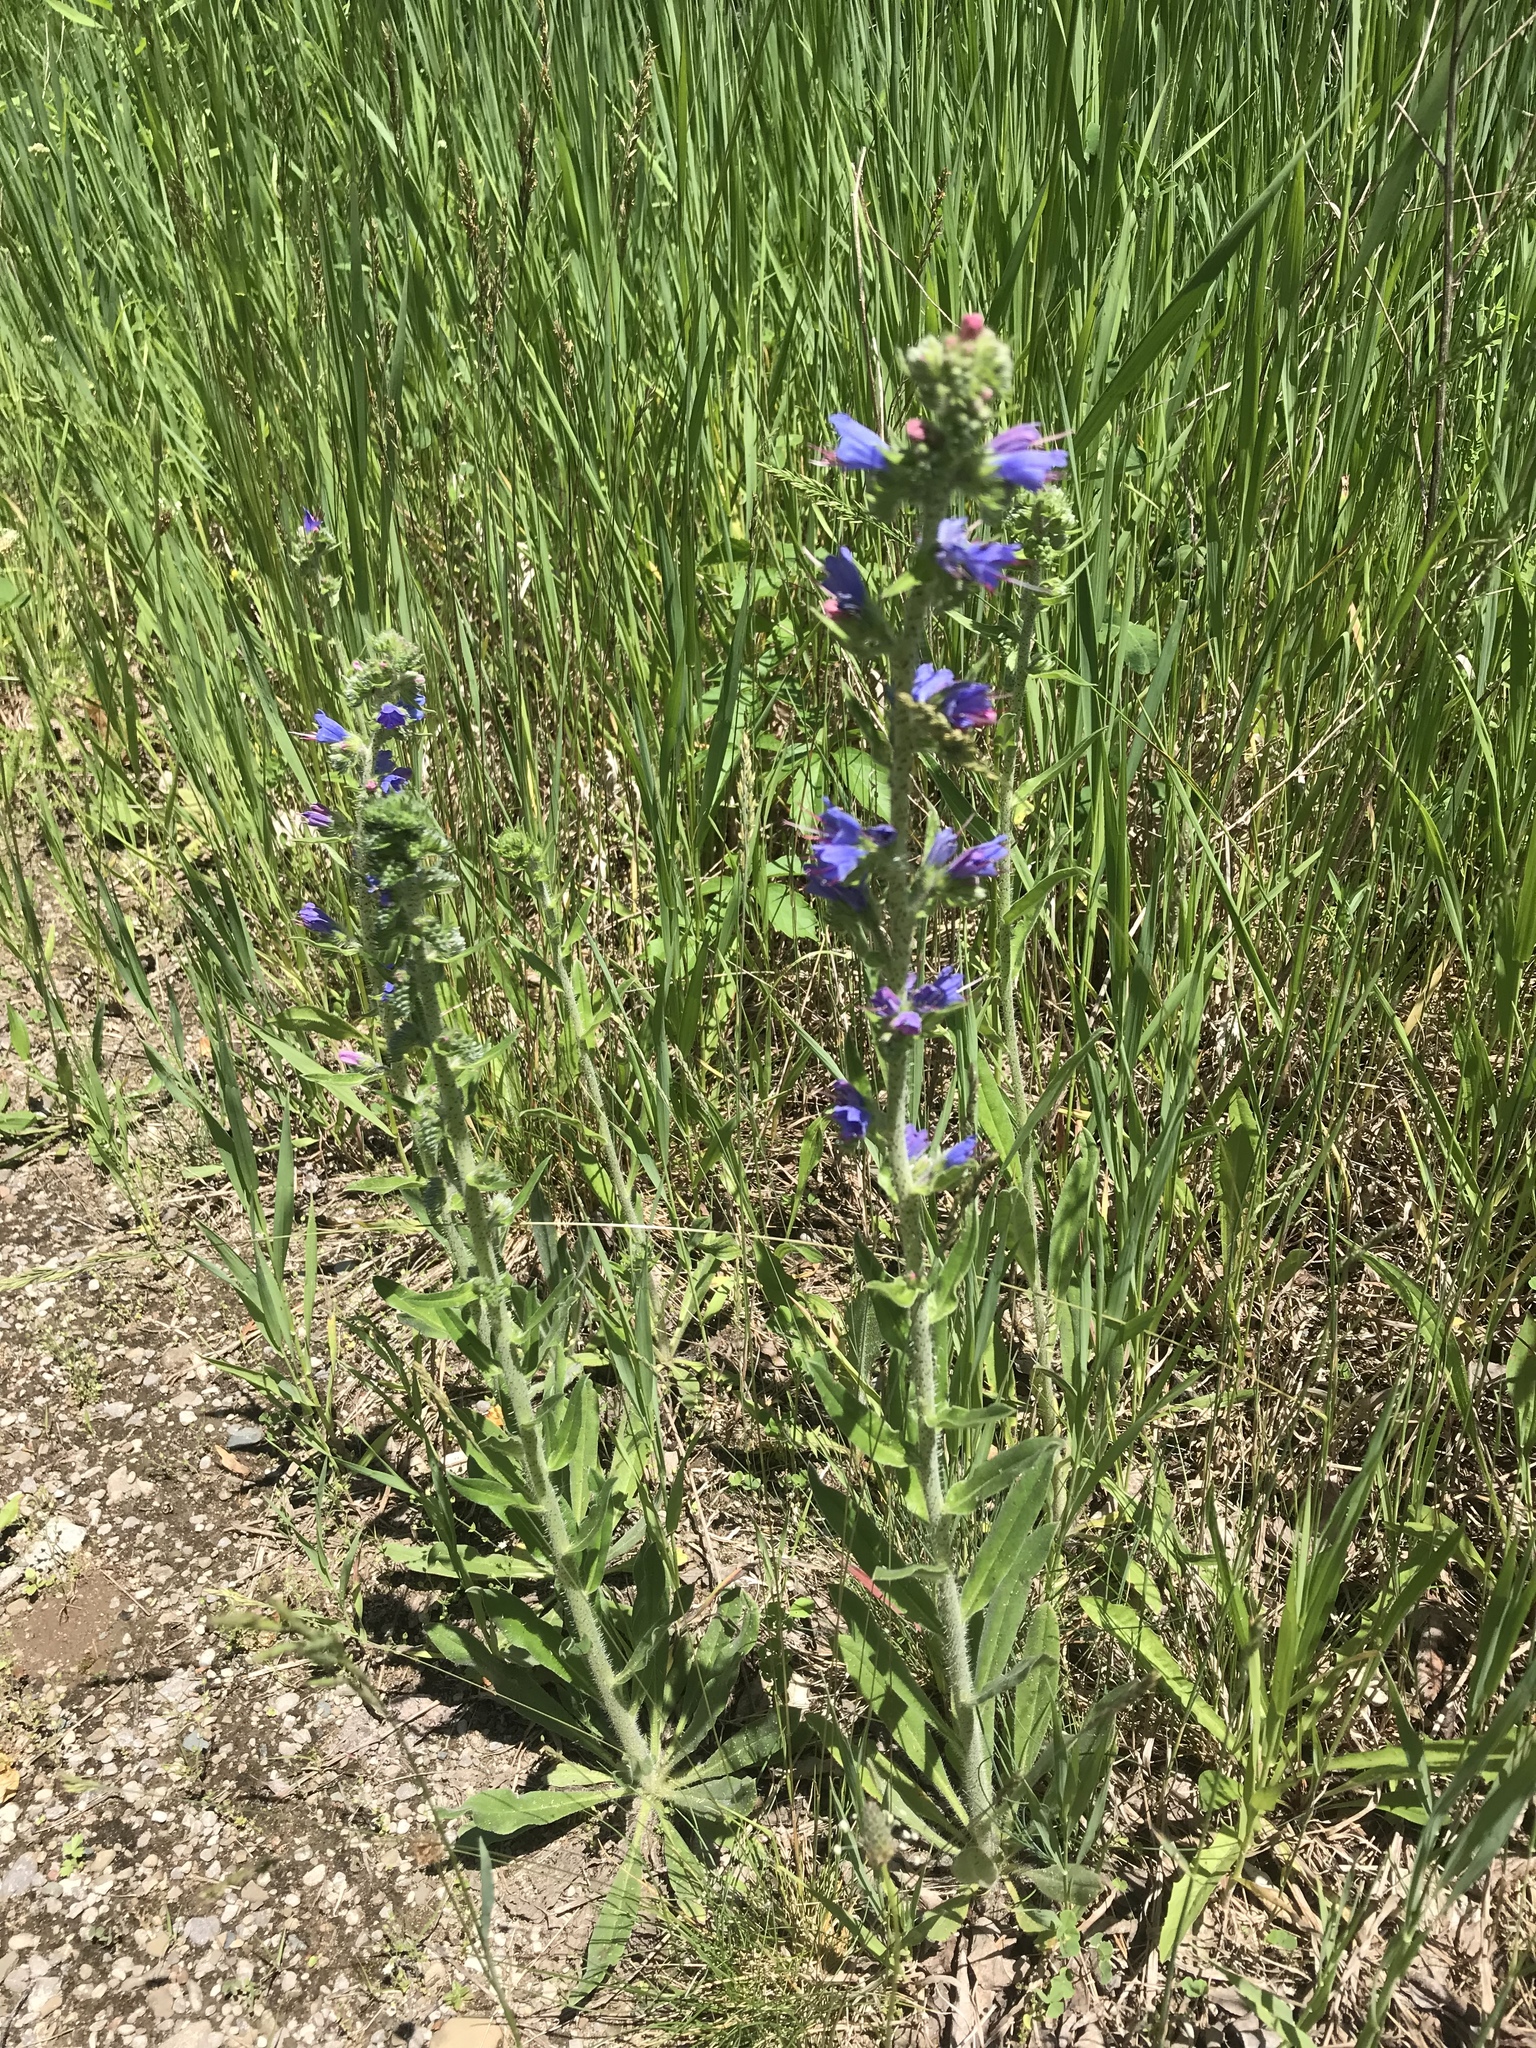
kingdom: Plantae
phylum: Tracheophyta
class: Magnoliopsida
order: Boraginales
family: Boraginaceae
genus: Echium
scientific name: Echium vulgare
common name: Common viper's bugloss
